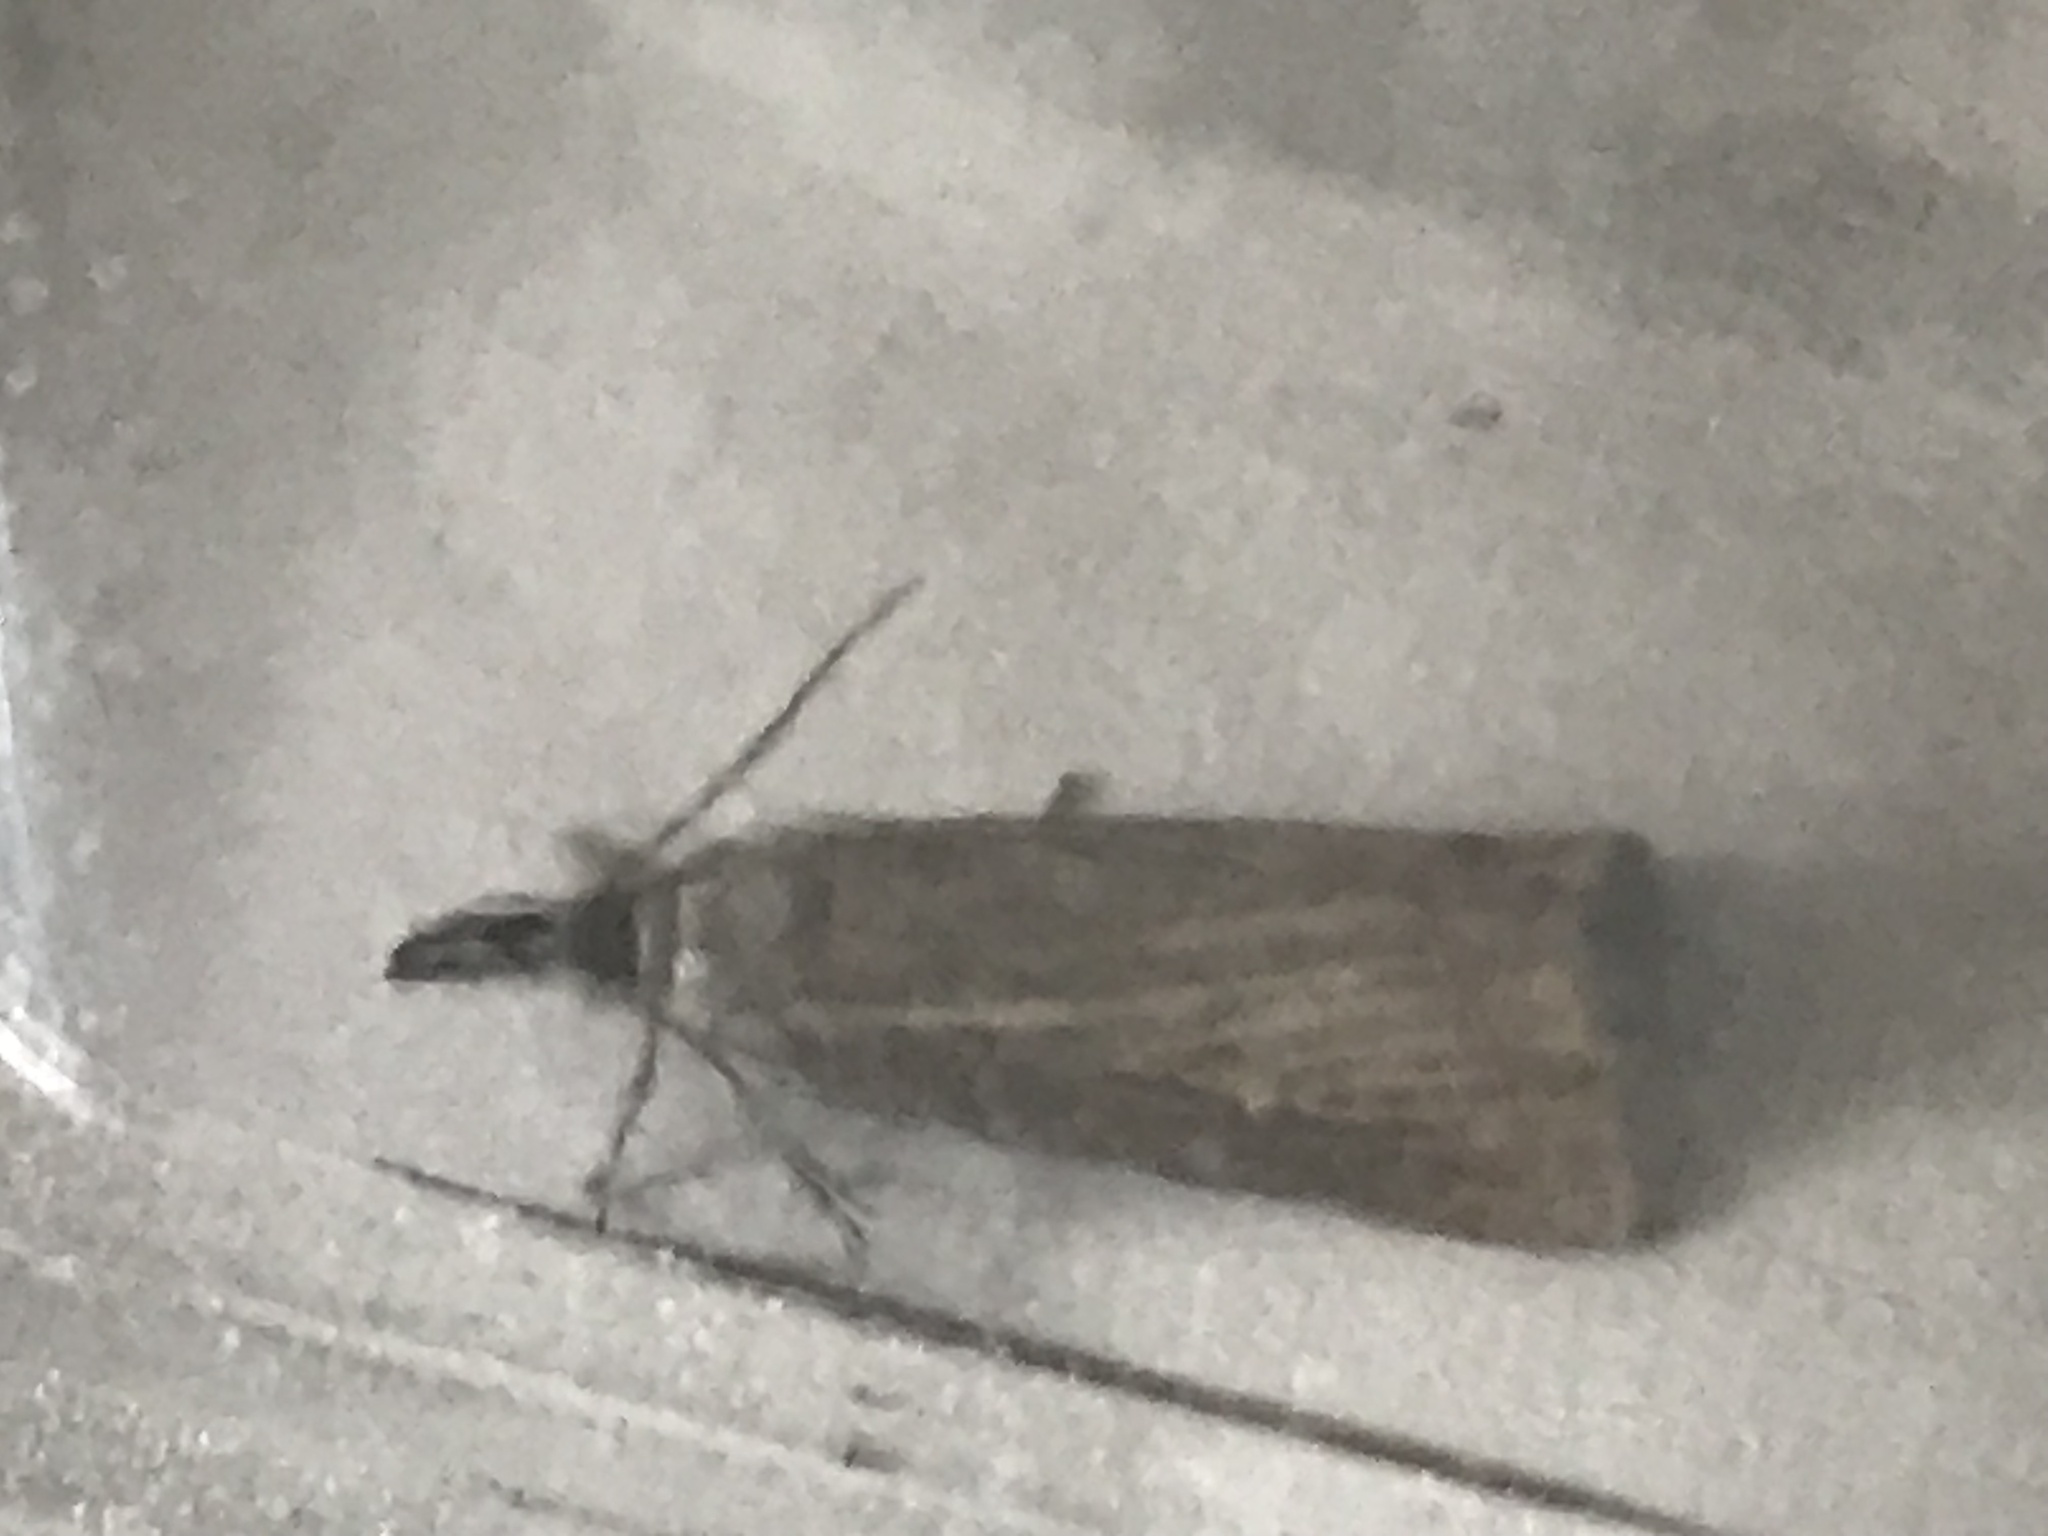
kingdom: Animalia
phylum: Arthropoda
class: Insecta
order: Lepidoptera
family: Crambidae
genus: Chrysoteuchia
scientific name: Chrysoteuchia culmella
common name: Garden grass-veneer
